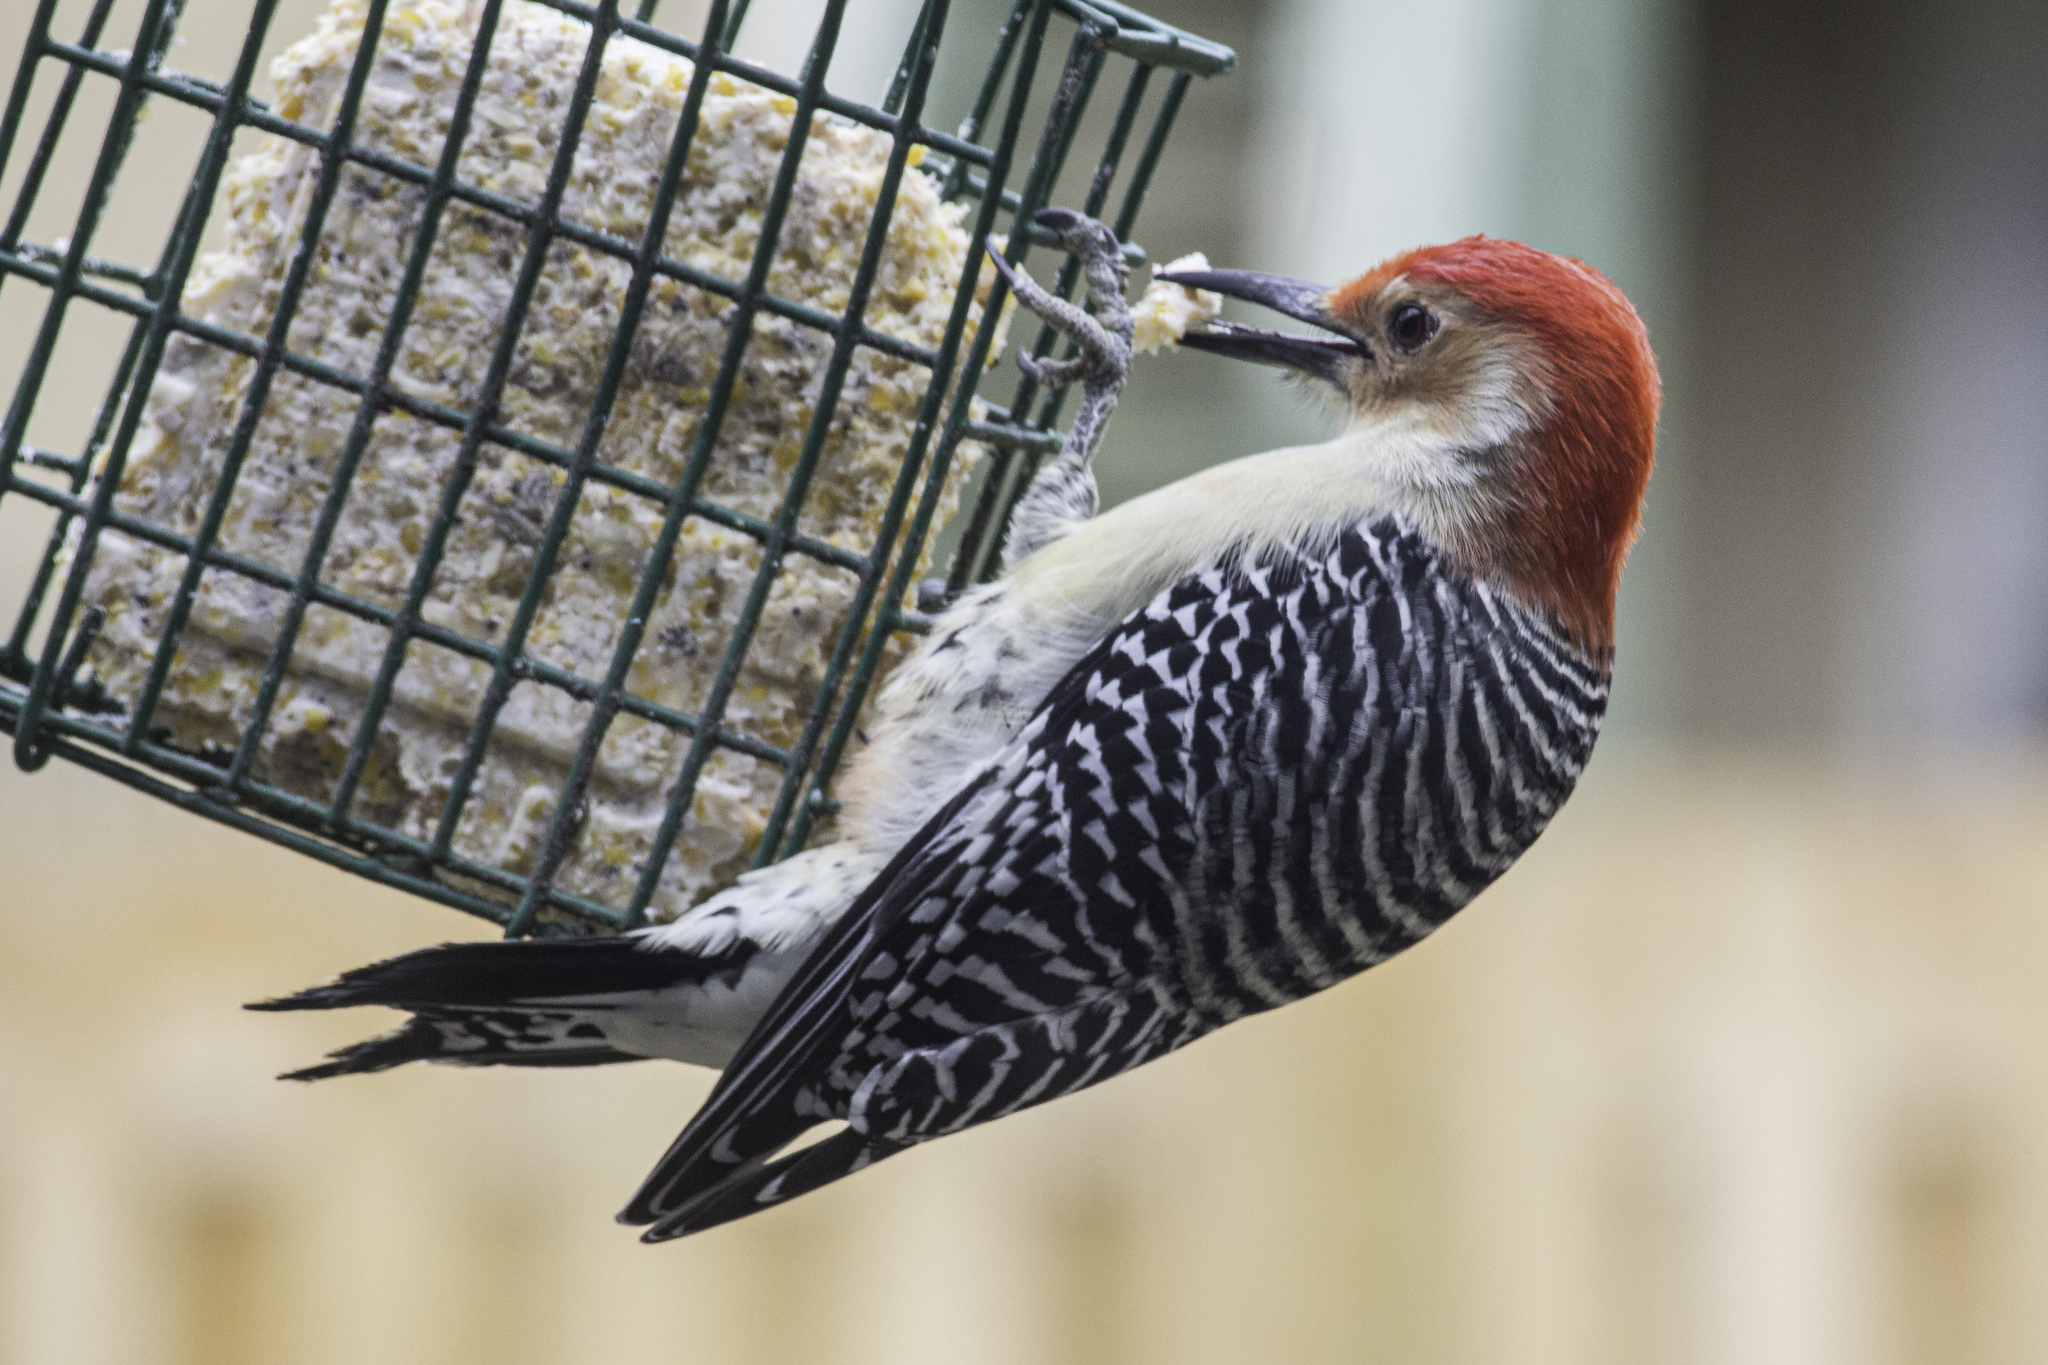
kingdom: Animalia
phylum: Chordata
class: Aves
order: Piciformes
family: Picidae
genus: Melanerpes
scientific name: Melanerpes carolinus
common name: Red-bellied woodpecker
